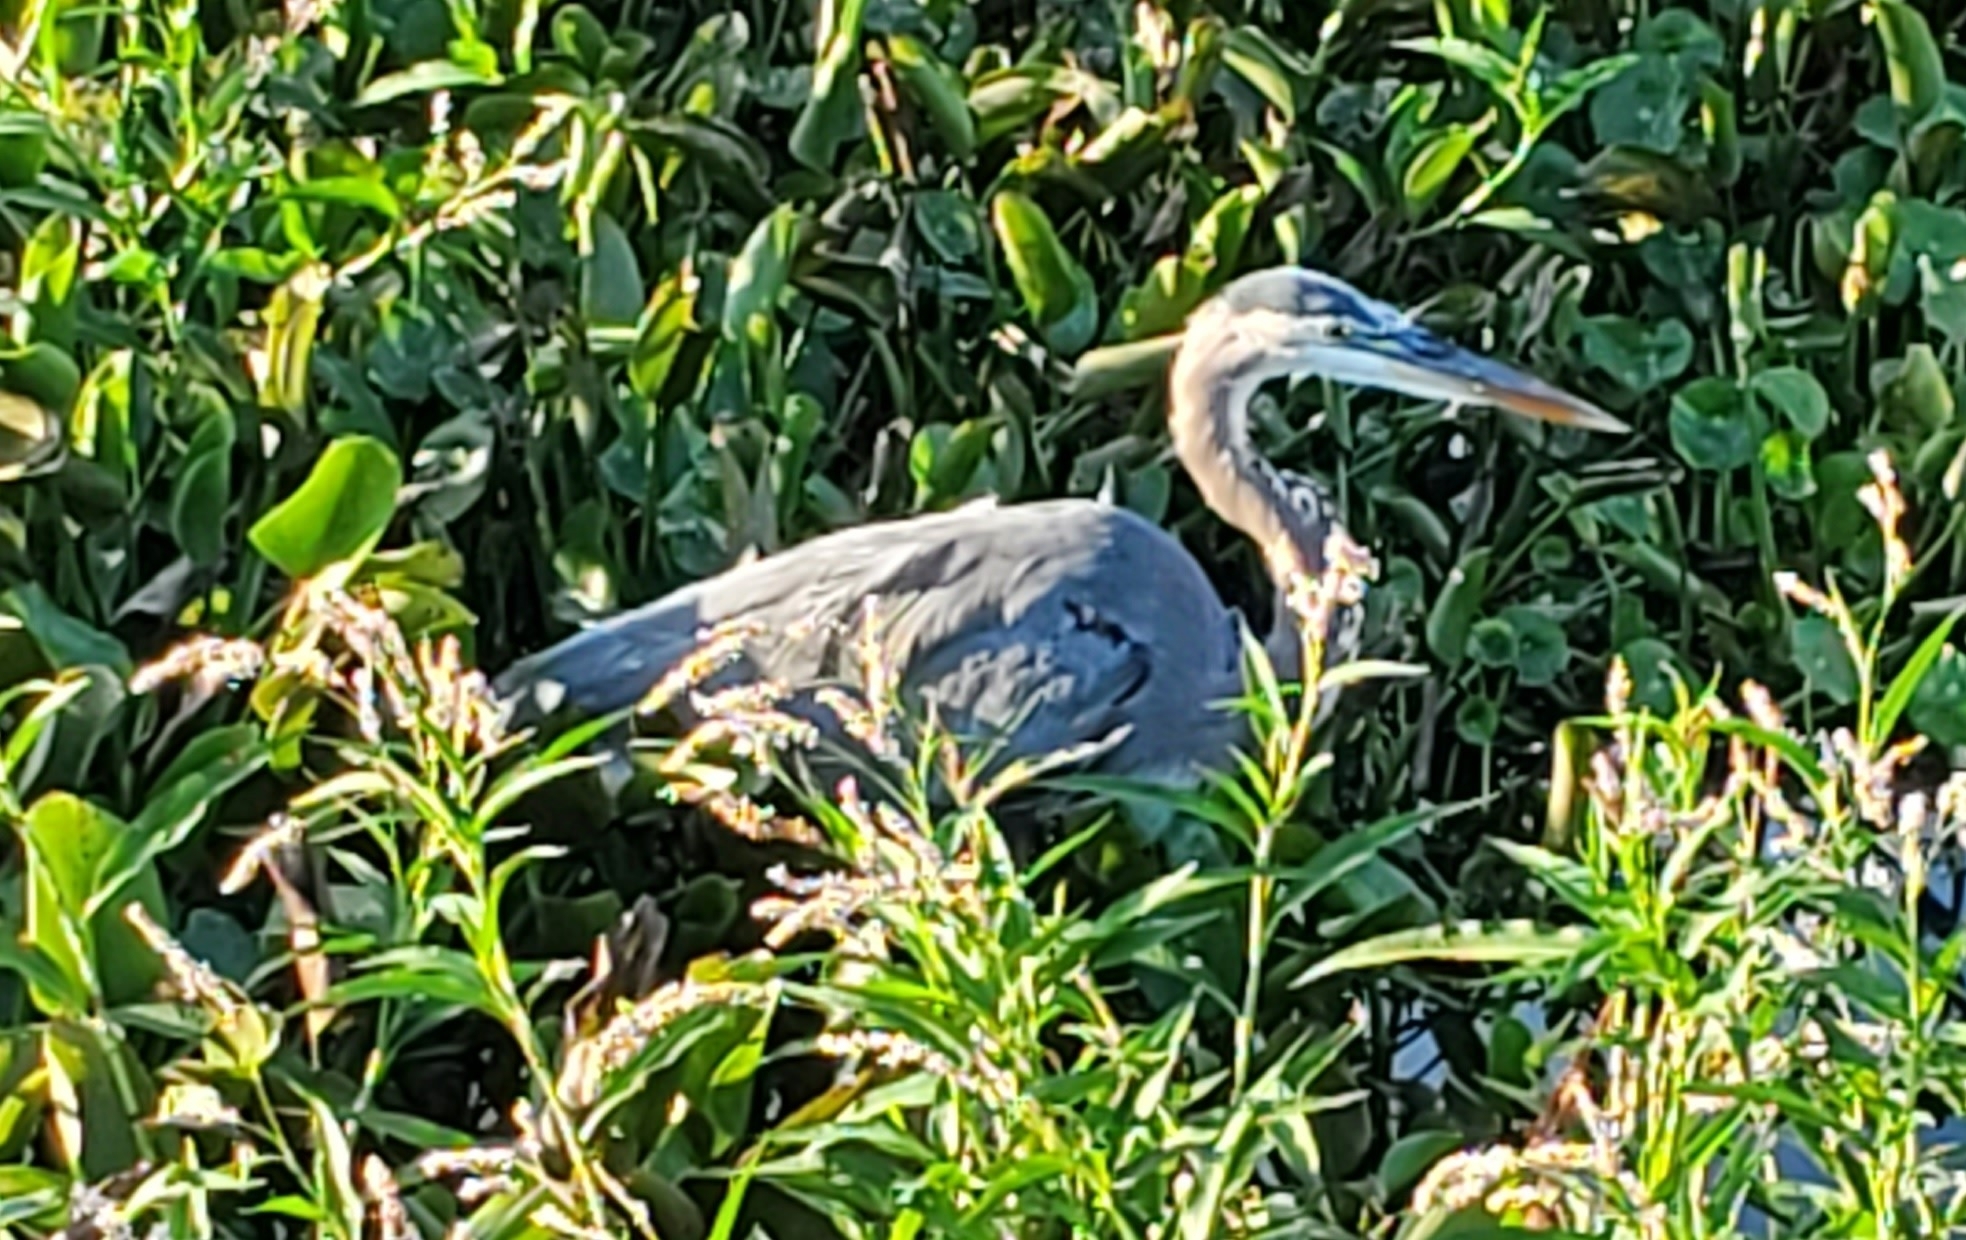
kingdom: Animalia
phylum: Chordata
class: Aves
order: Pelecaniformes
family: Ardeidae
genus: Ardea
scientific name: Ardea herodias
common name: Great blue heron
